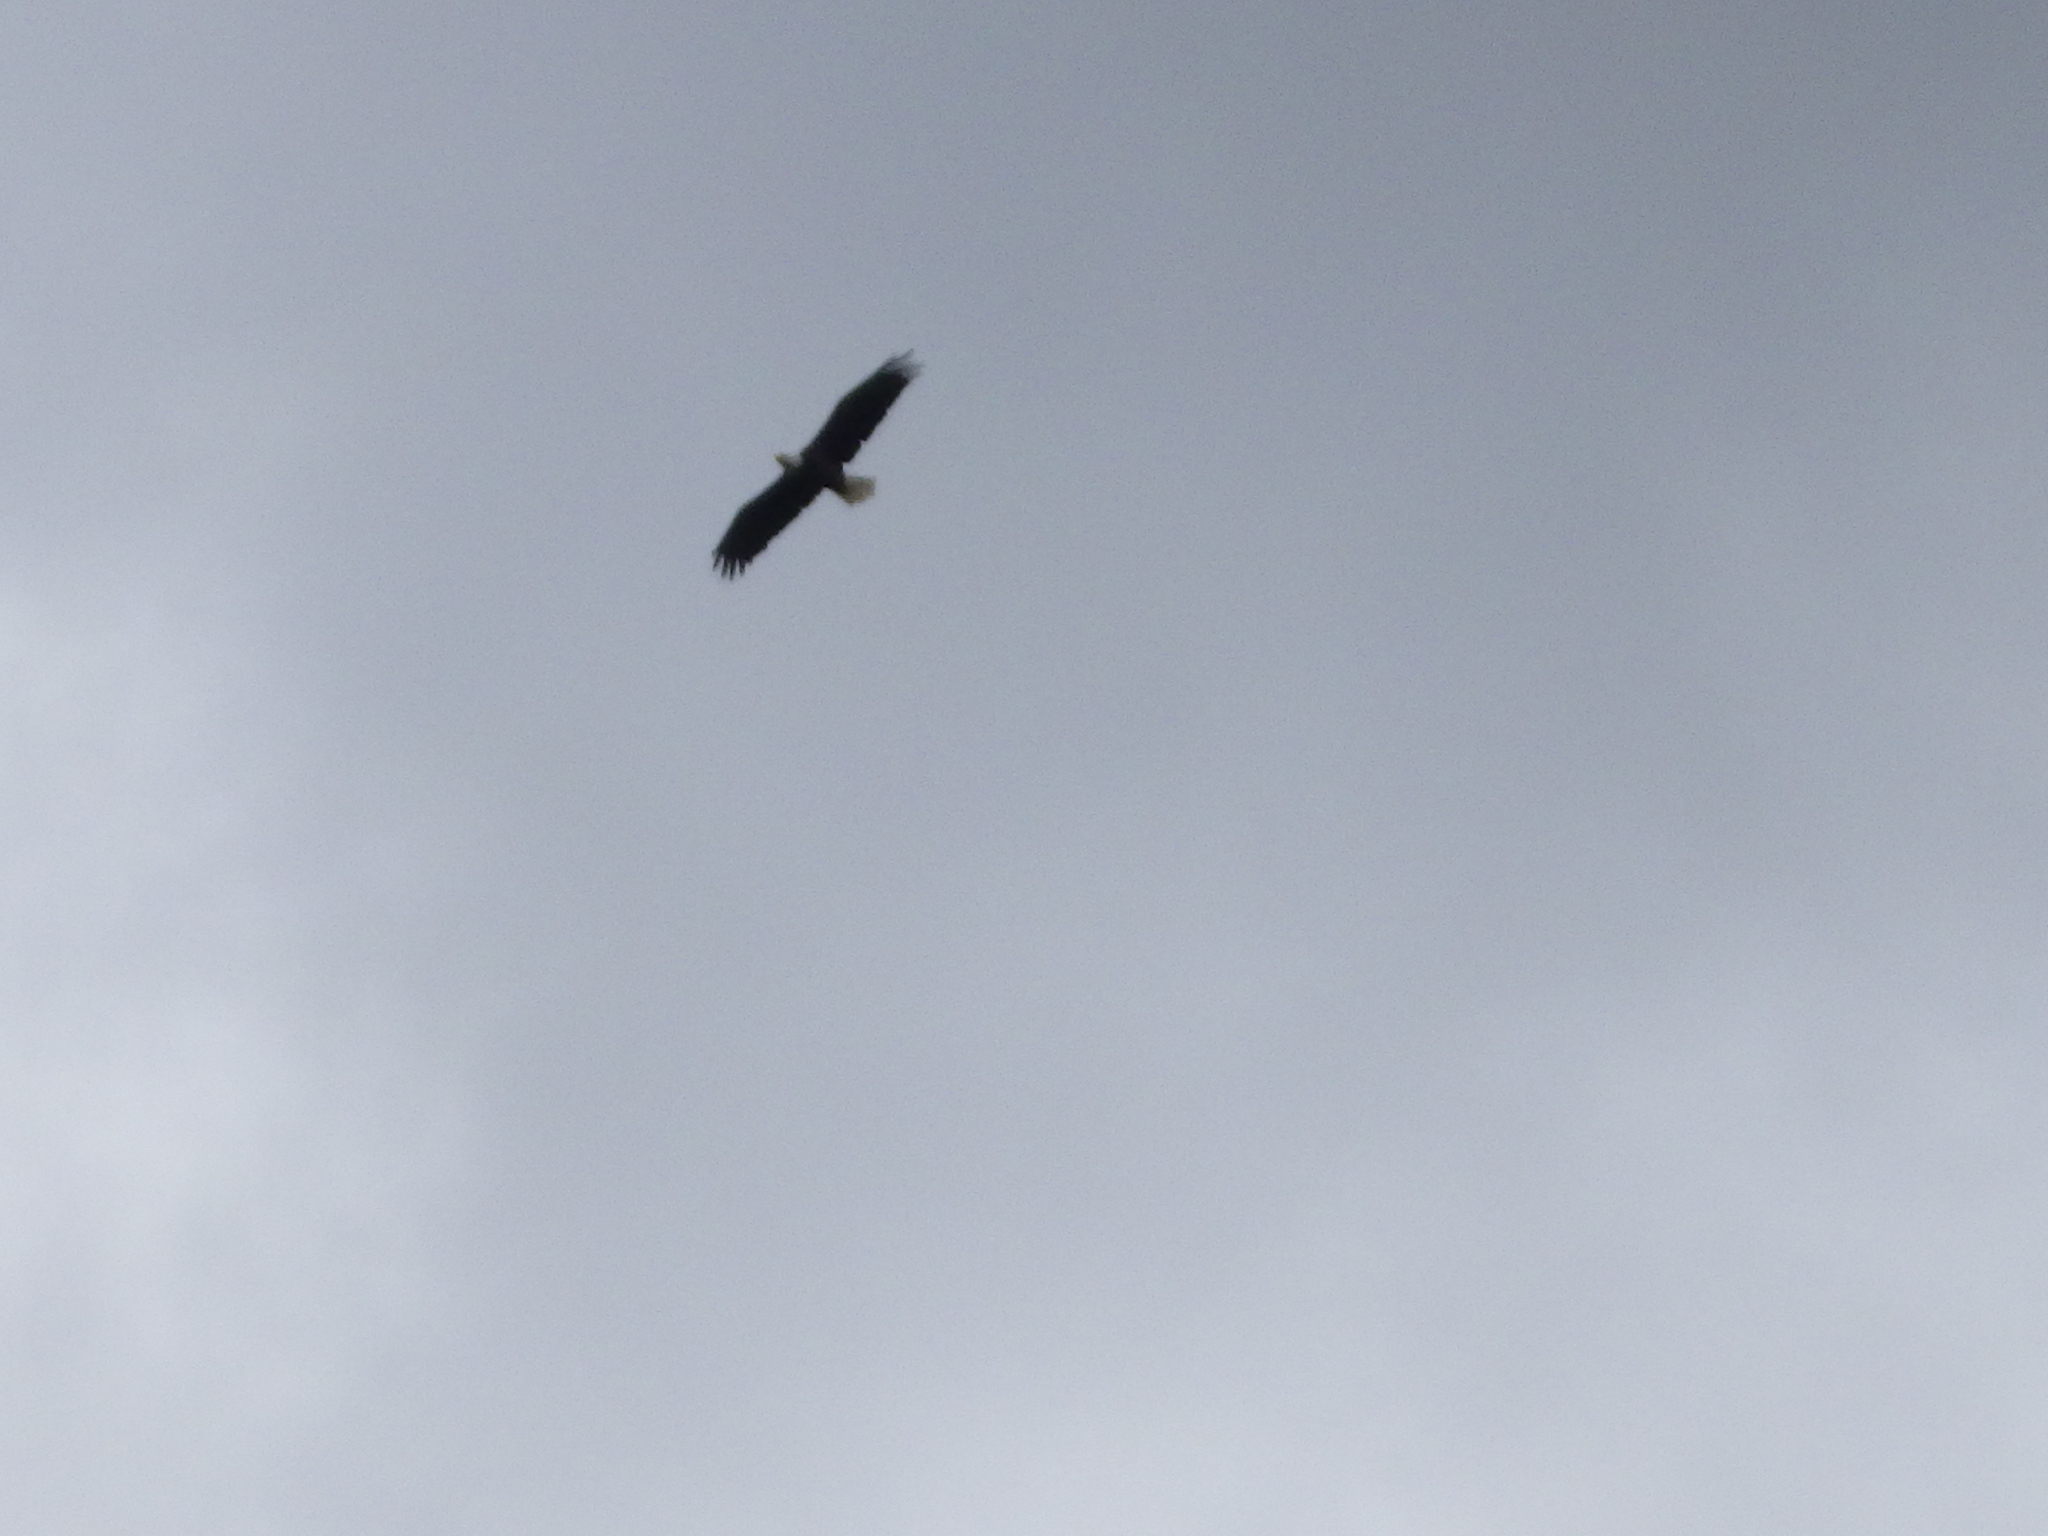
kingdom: Animalia
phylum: Chordata
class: Aves
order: Accipitriformes
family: Accipitridae
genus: Haliaeetus
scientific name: Haliaeetus leucocephalus
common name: Bald eagle
